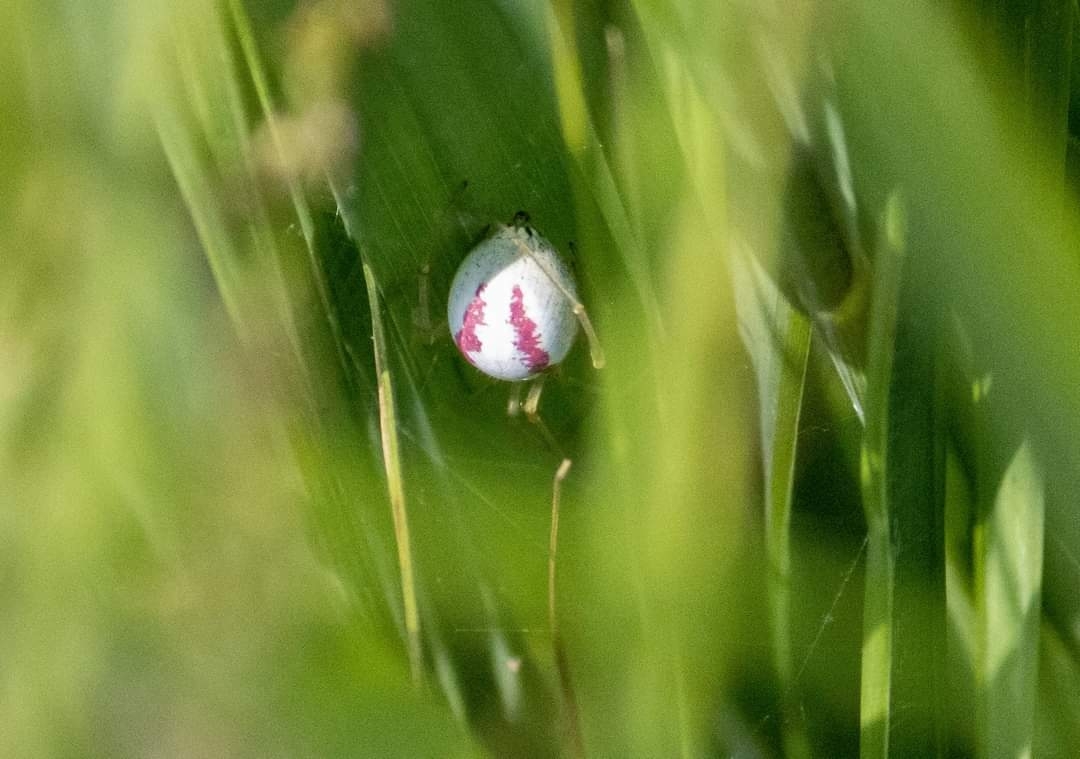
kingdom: Animalia
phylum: Arthropoda
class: Arachnida
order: Araneae
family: Theridiidae
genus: Enoplognatha
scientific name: Enoplognatha ovata
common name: Common candy-striped spider
